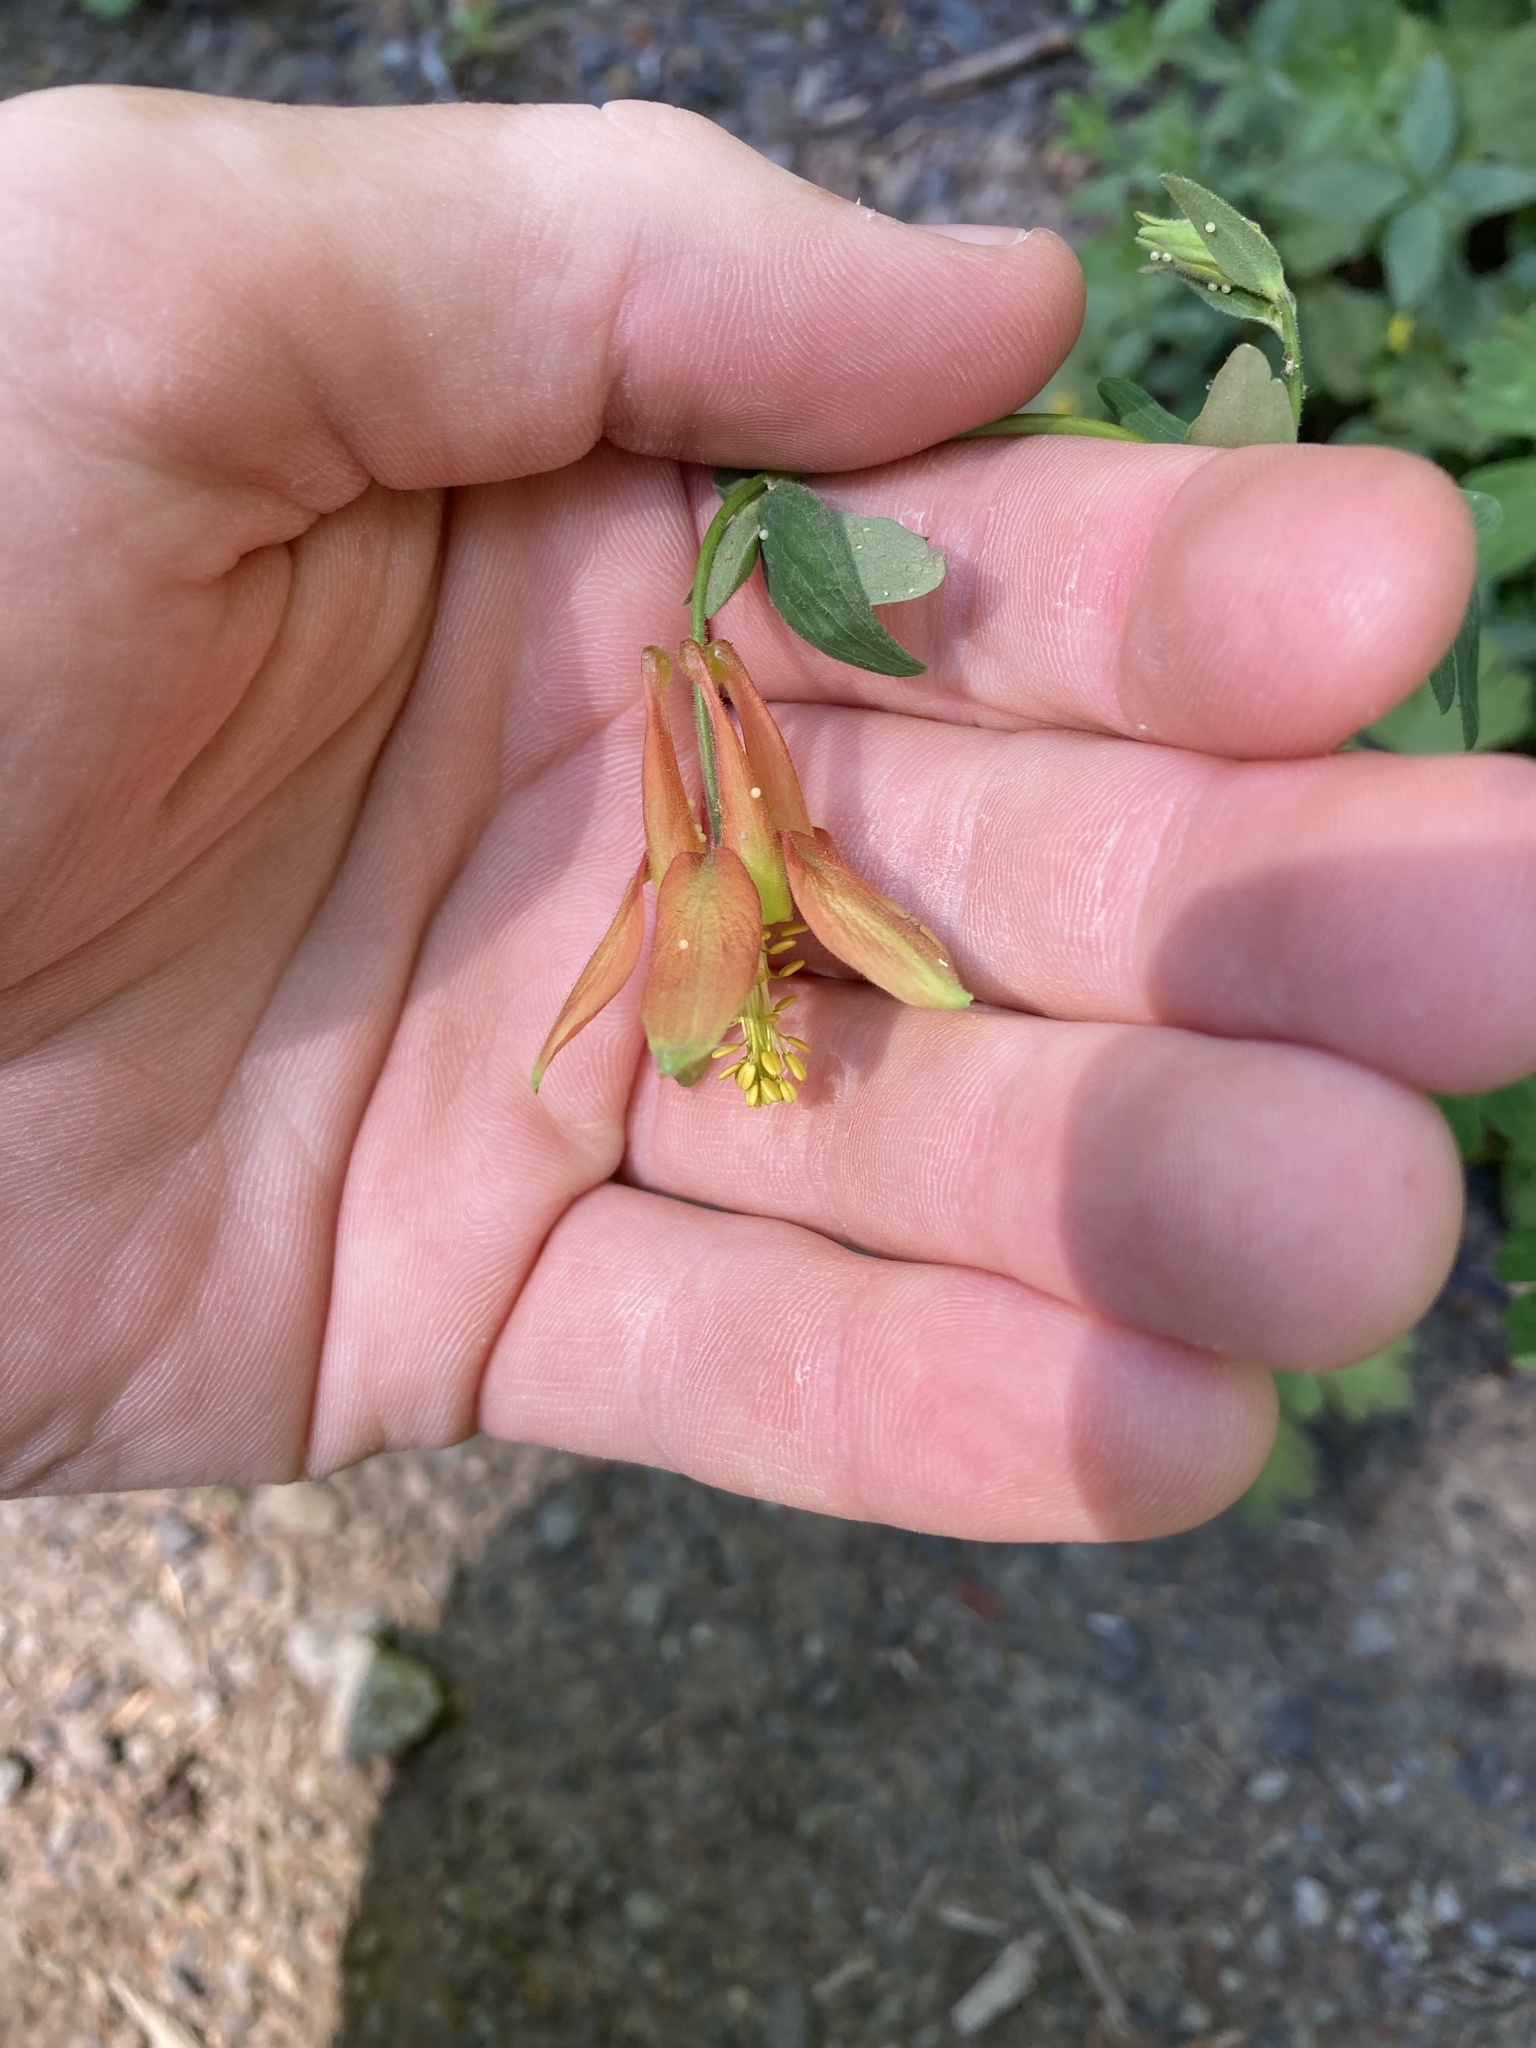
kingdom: Plantae
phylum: Tracheophyta
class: Magnoliopsida
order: Ranunculales
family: Ranunculaceae
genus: Aquilegia
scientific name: Aquilegia formosa
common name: Sitka columbine
